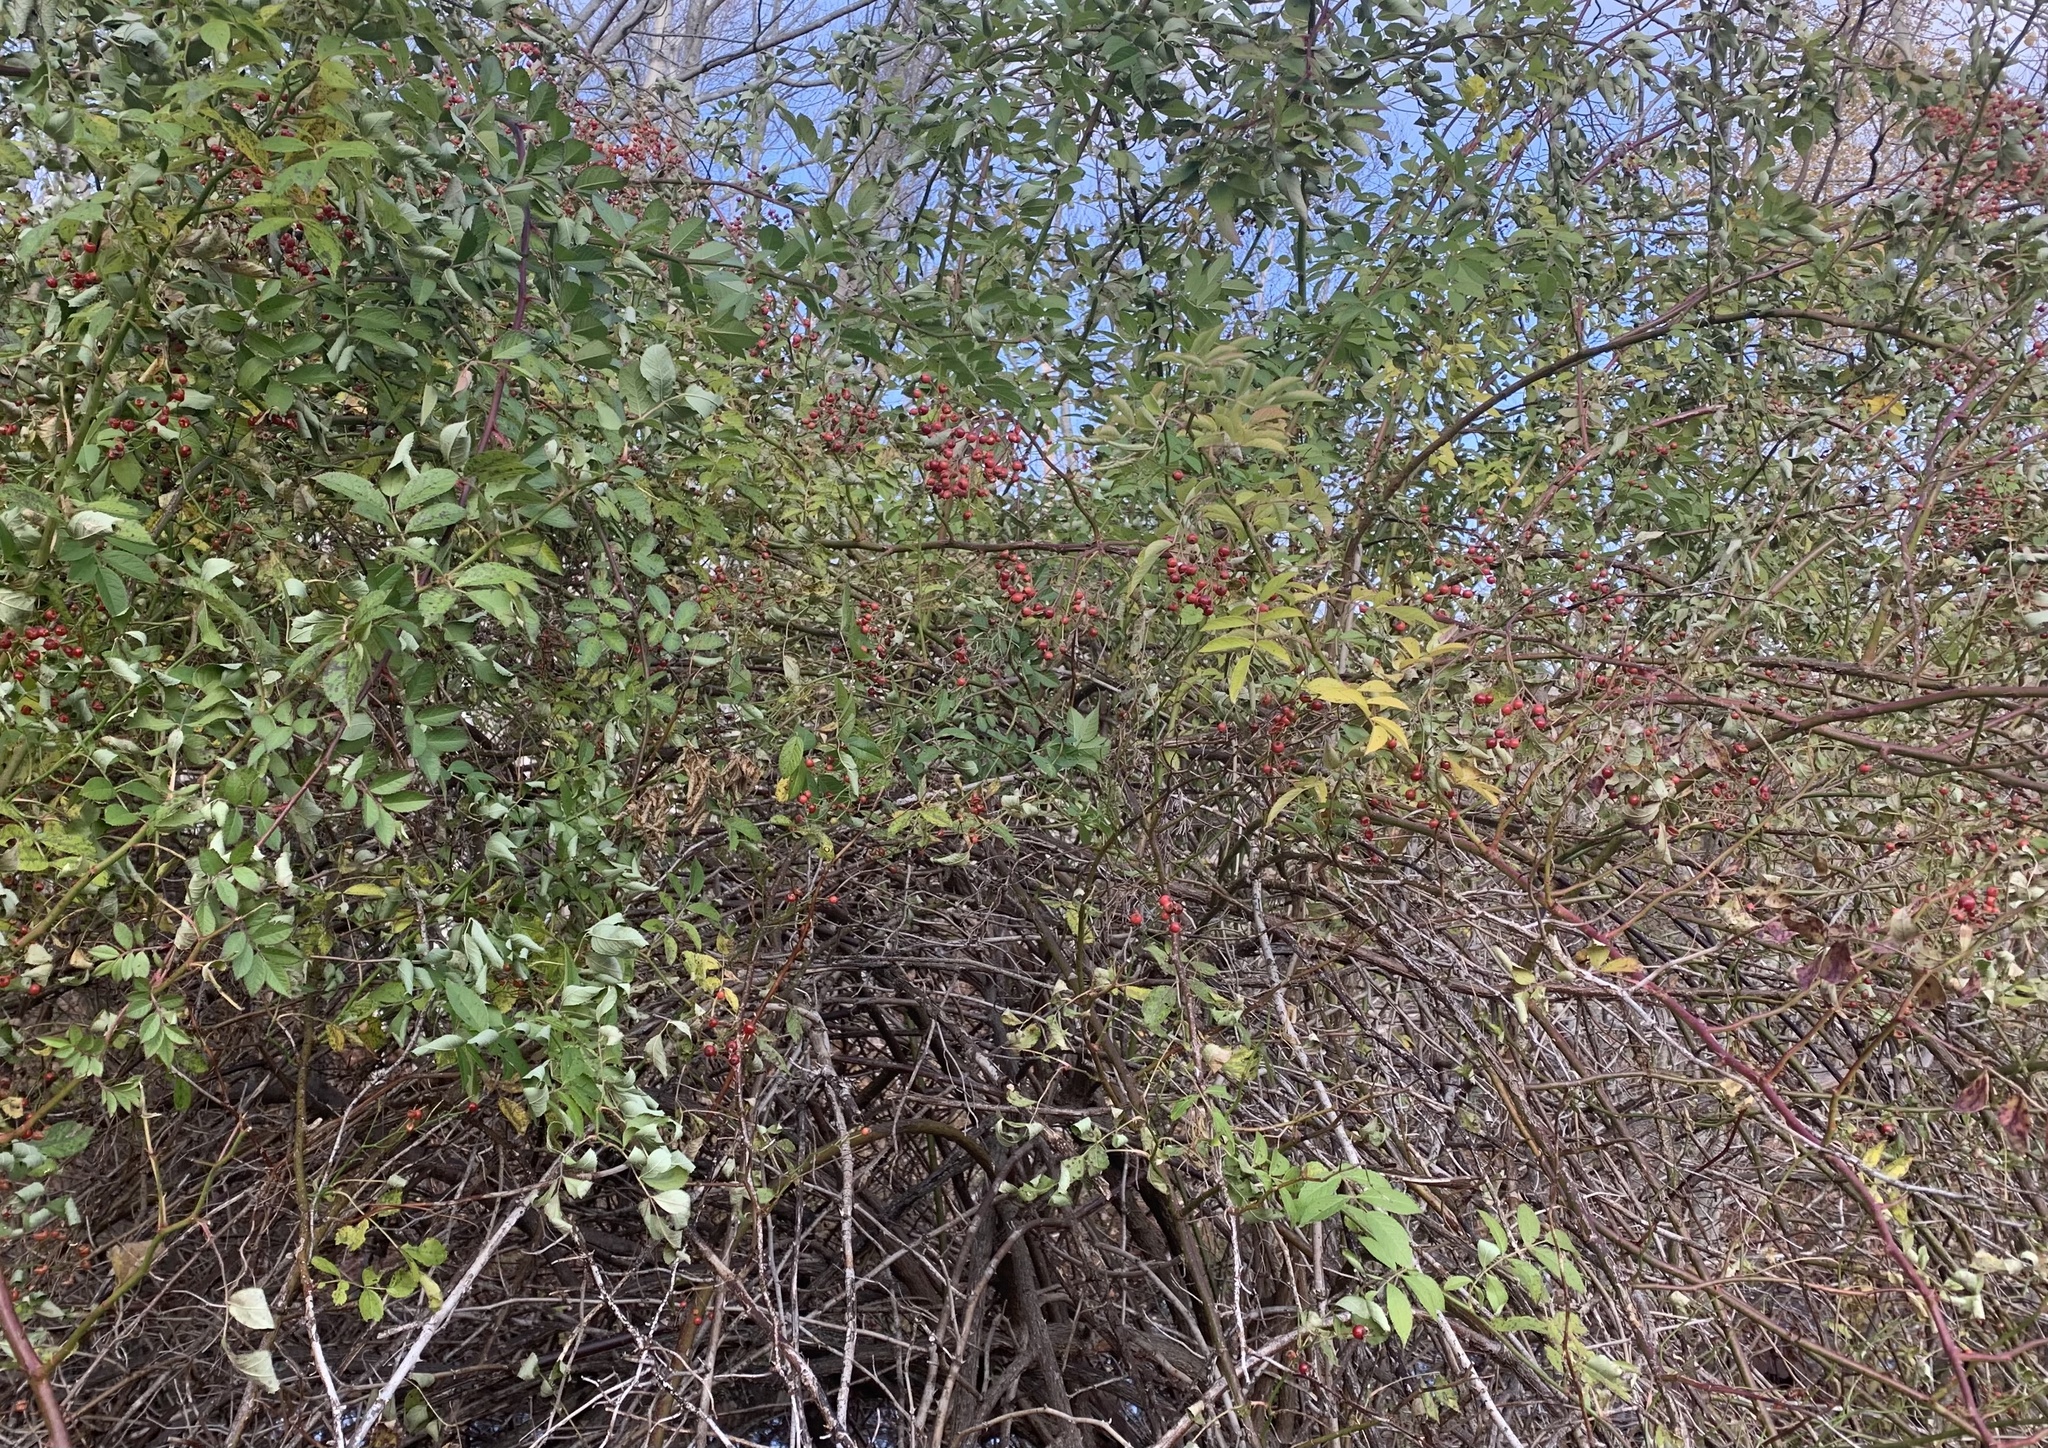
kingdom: Plantae
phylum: Tracheophyta
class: Magnoliopsida
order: Rosales
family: Rosaceae
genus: Rosa
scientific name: Rosa multiflora
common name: Multiflora rose
